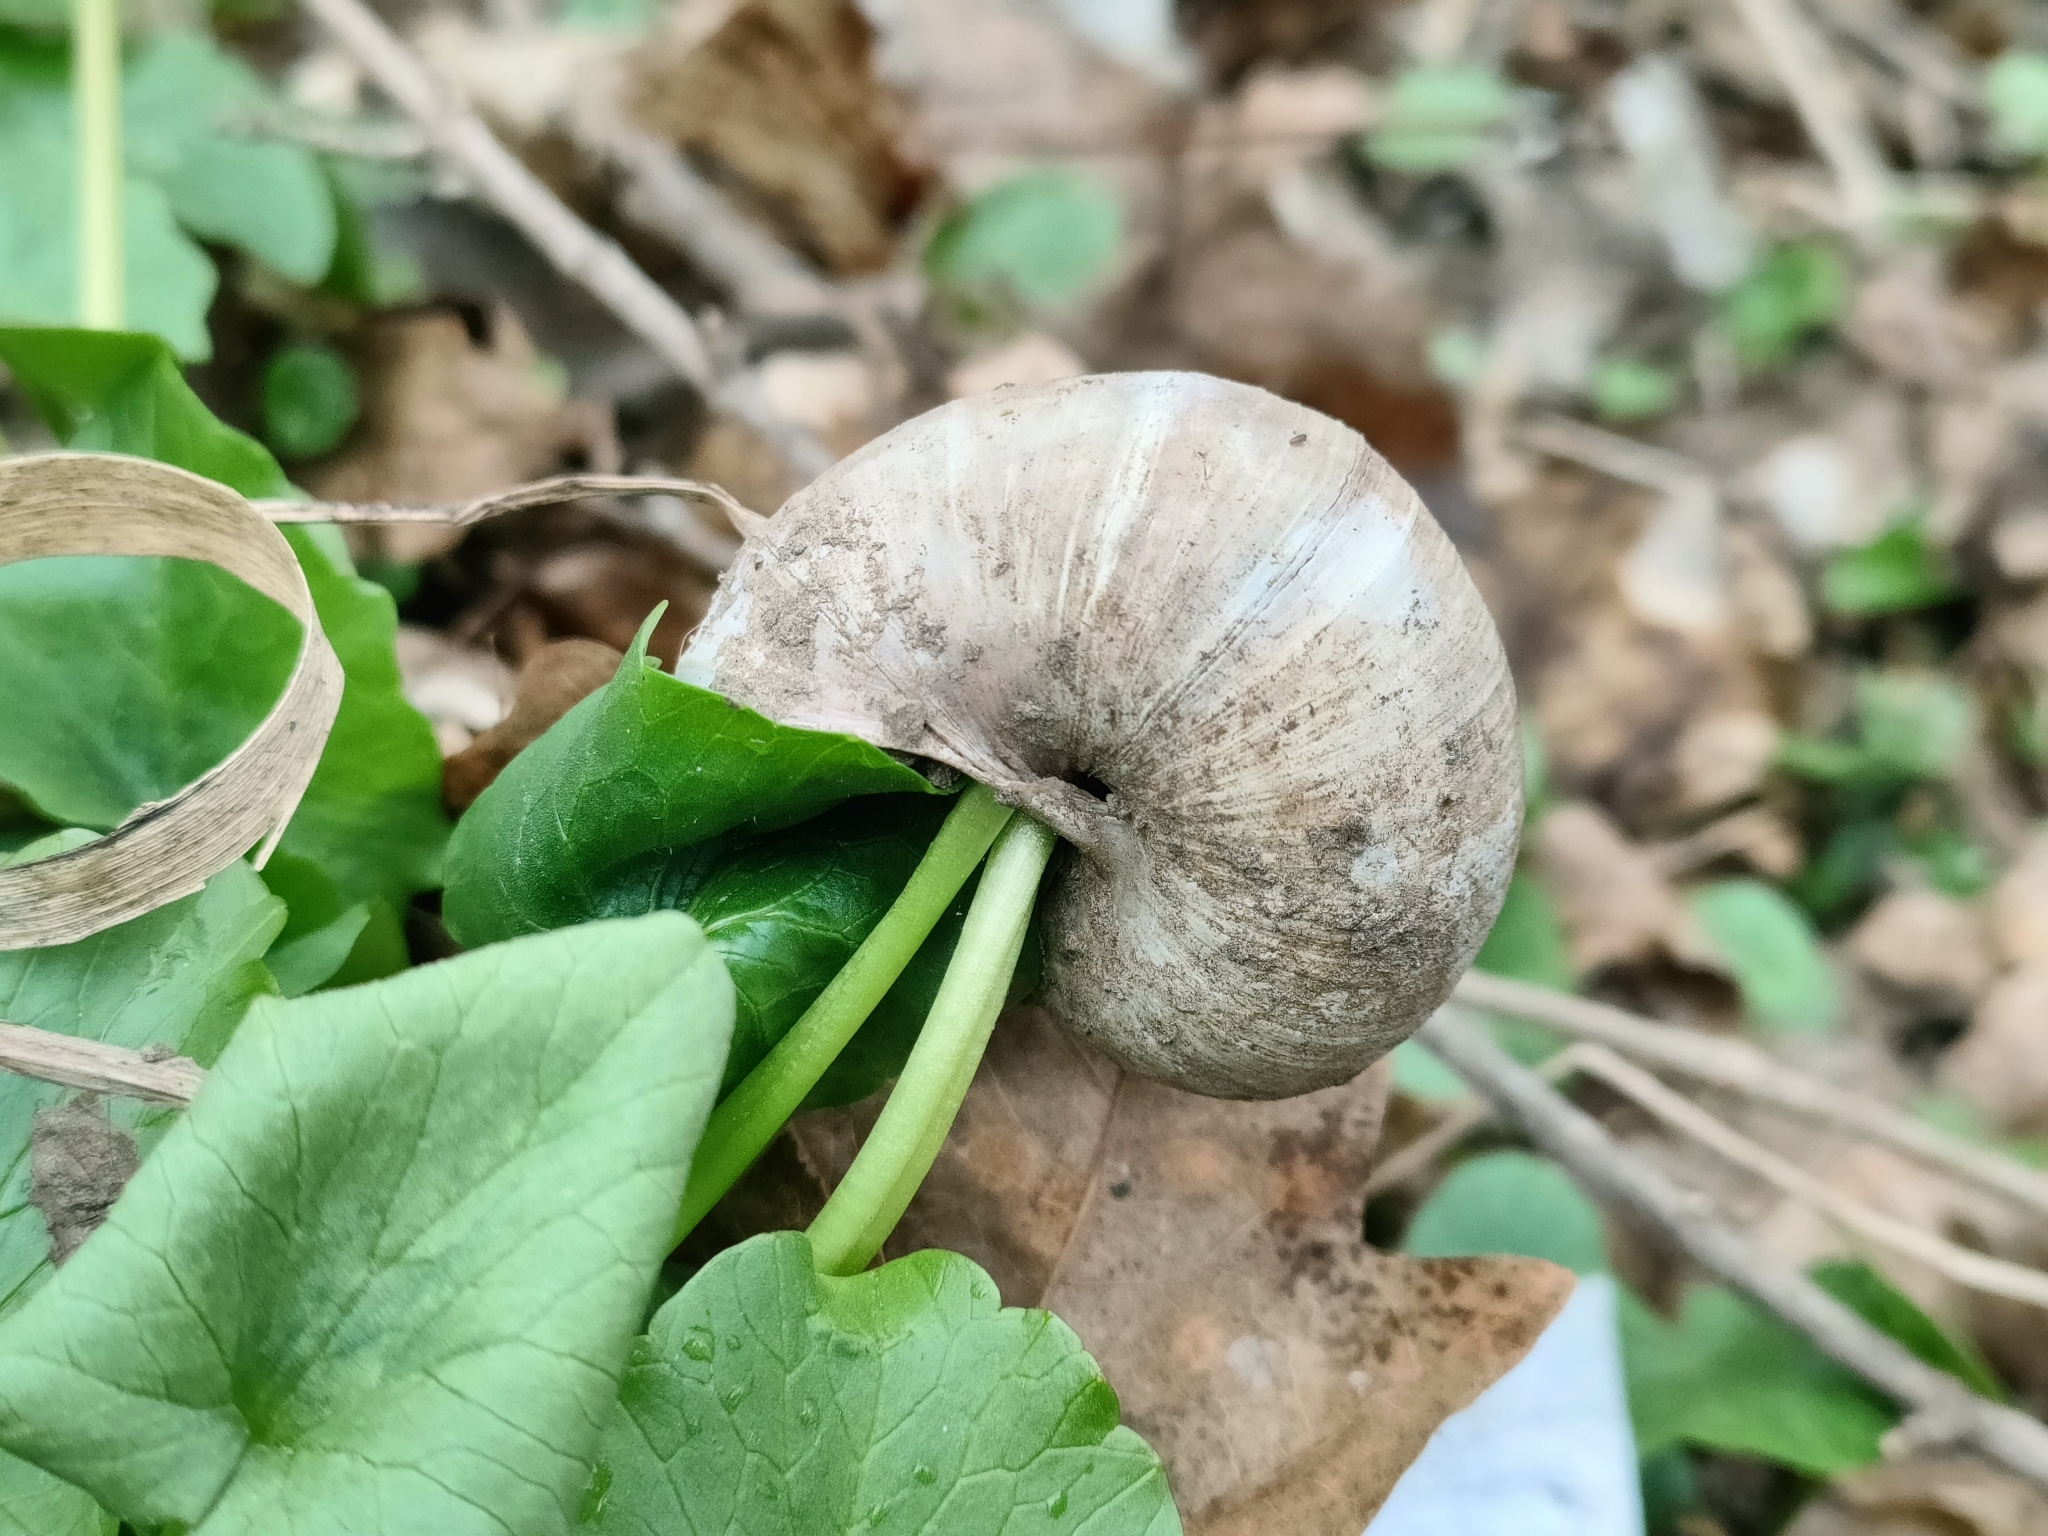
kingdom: Animalia
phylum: Mollusca
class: Gastropoda
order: Stylommatophora
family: Helicidae
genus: Helix
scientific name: Helix pomatia
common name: Roman snail
